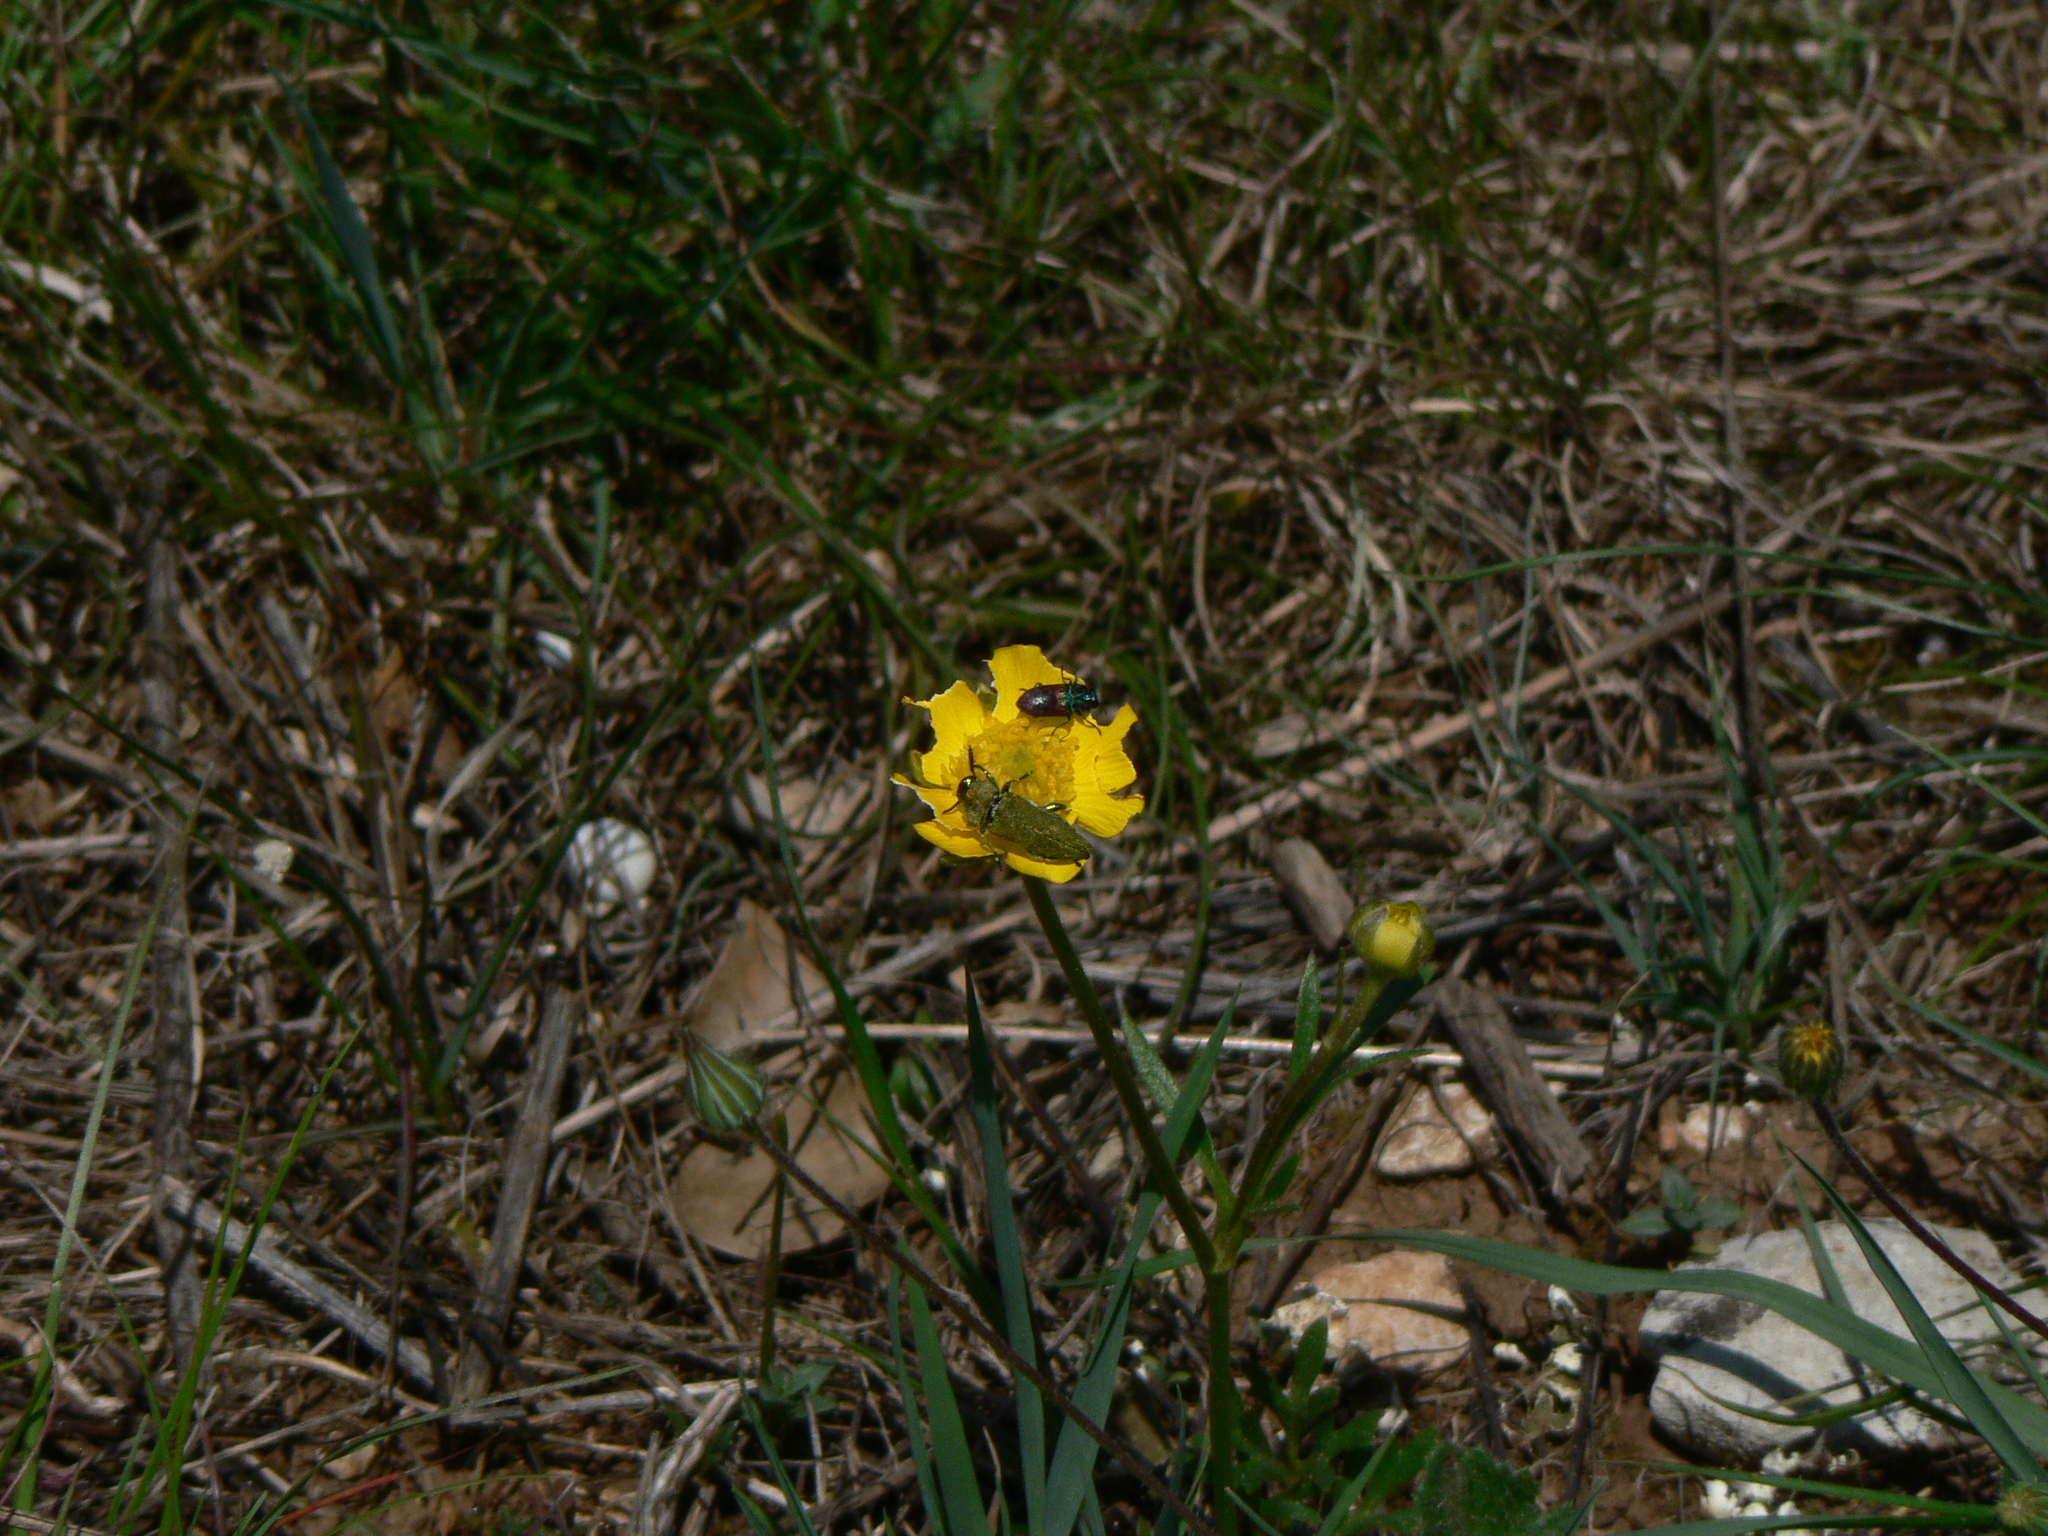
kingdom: Animalia
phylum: Arthropoda
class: Insecta
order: Coleoptera
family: Buprestidae
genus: Anthaxia
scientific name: Anthaxia salicis
